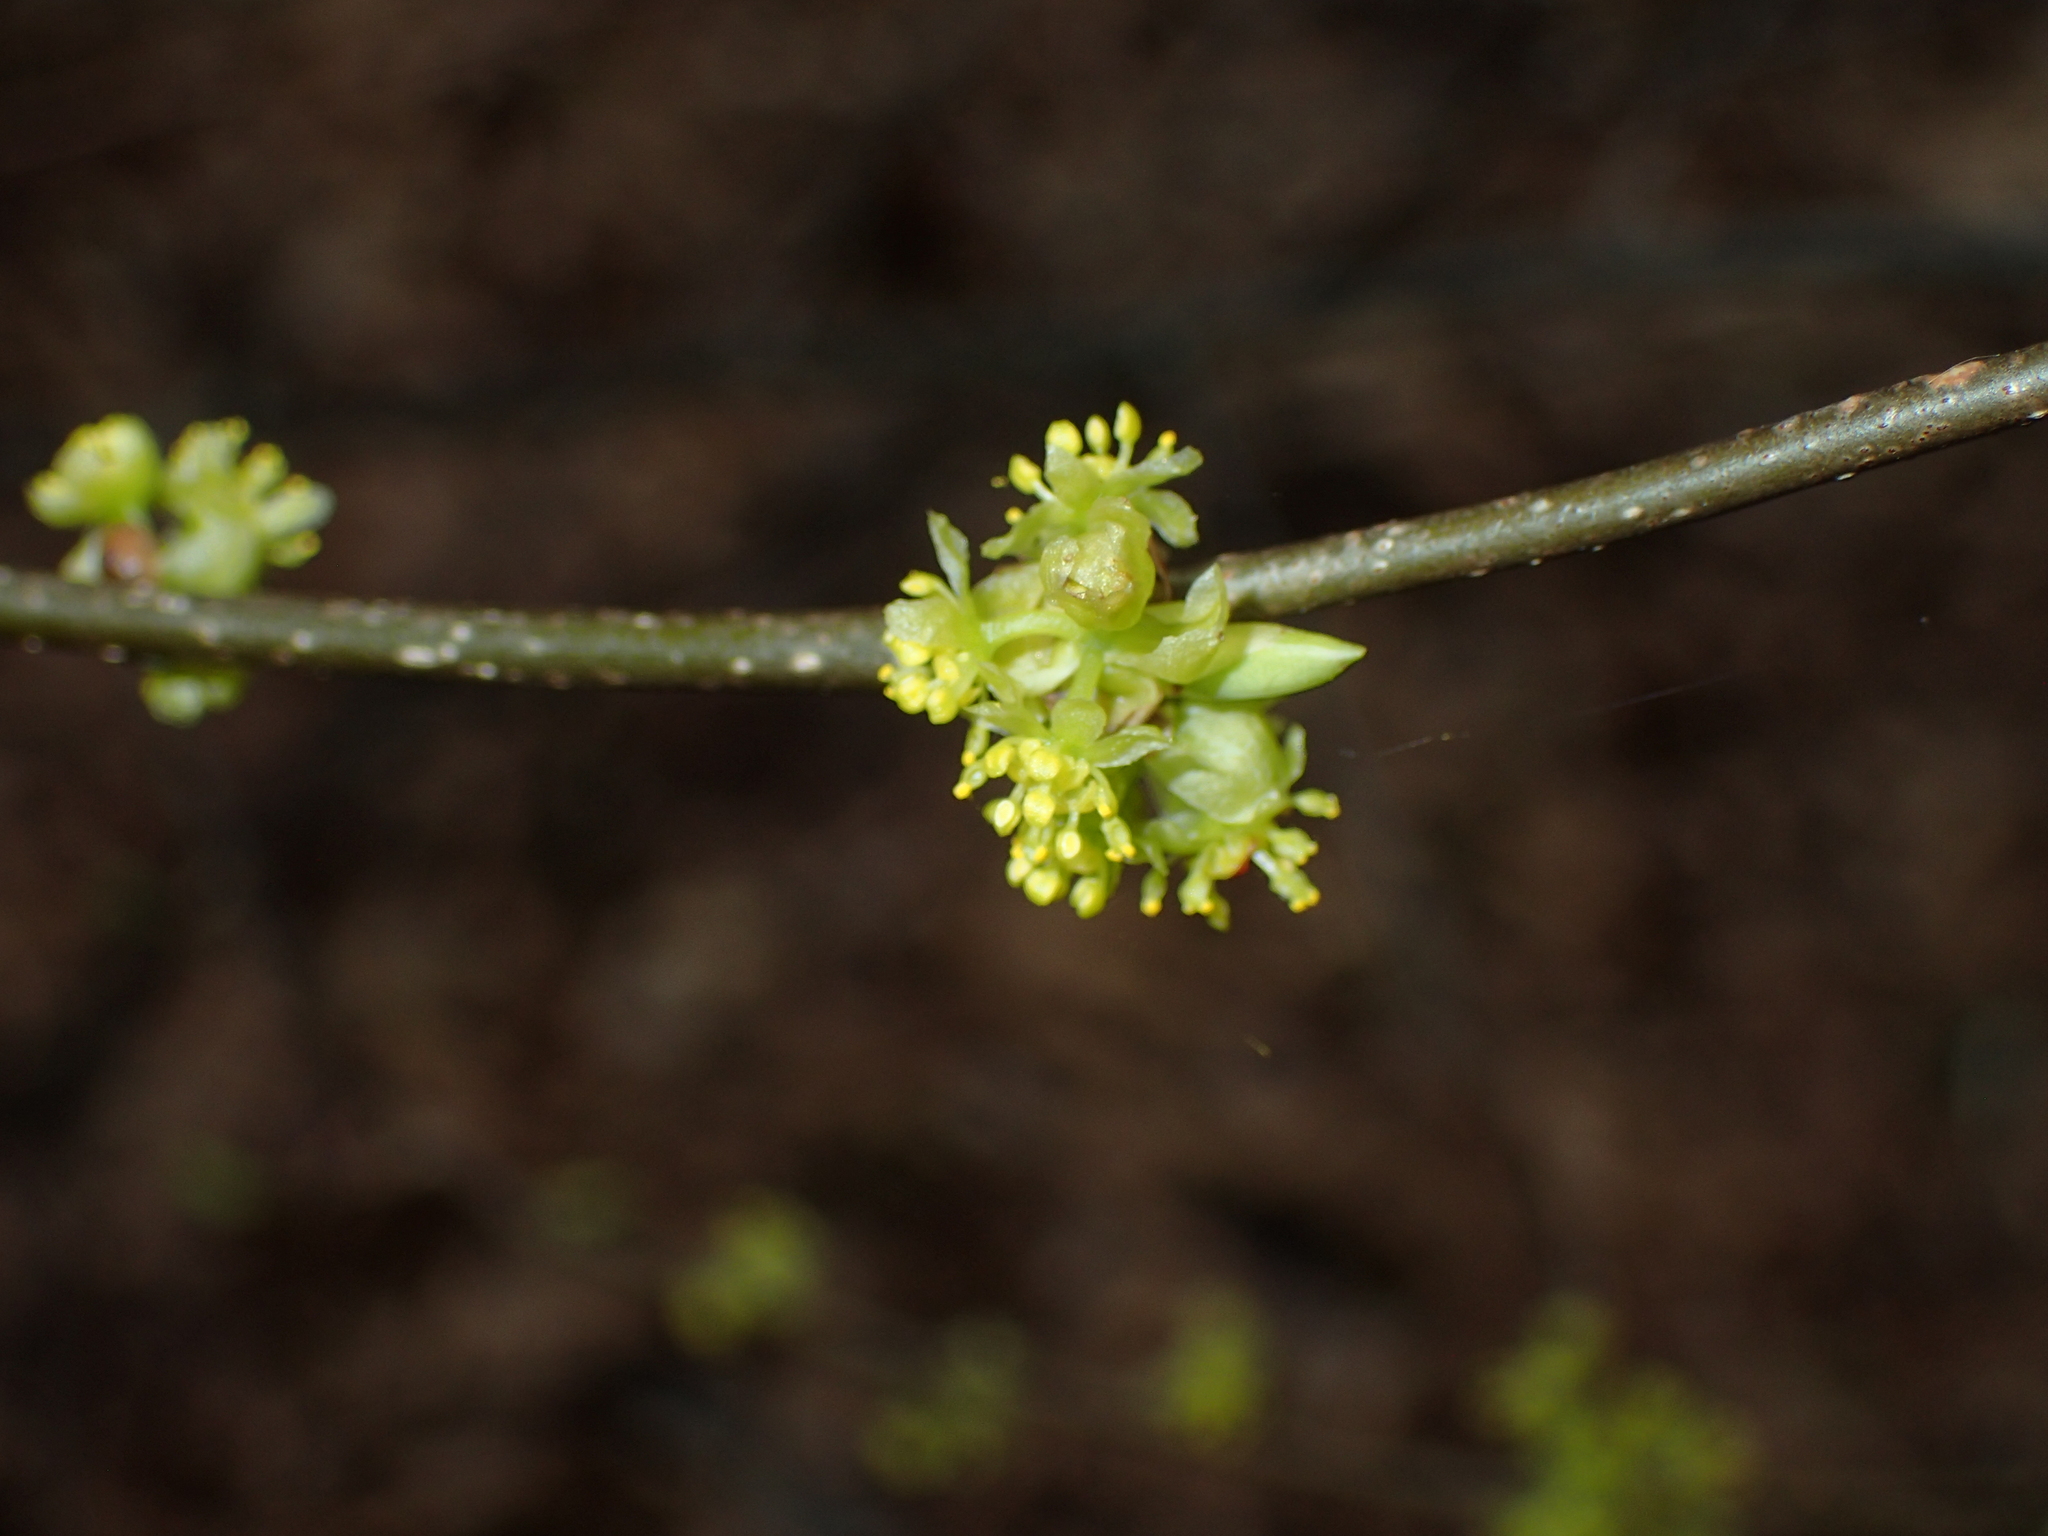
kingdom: Plantae
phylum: Tracheophyta
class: Magnoliopsida
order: Laurales
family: Lauraceae
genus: Lindera
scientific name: Lindera benzoin
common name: Spicebush
